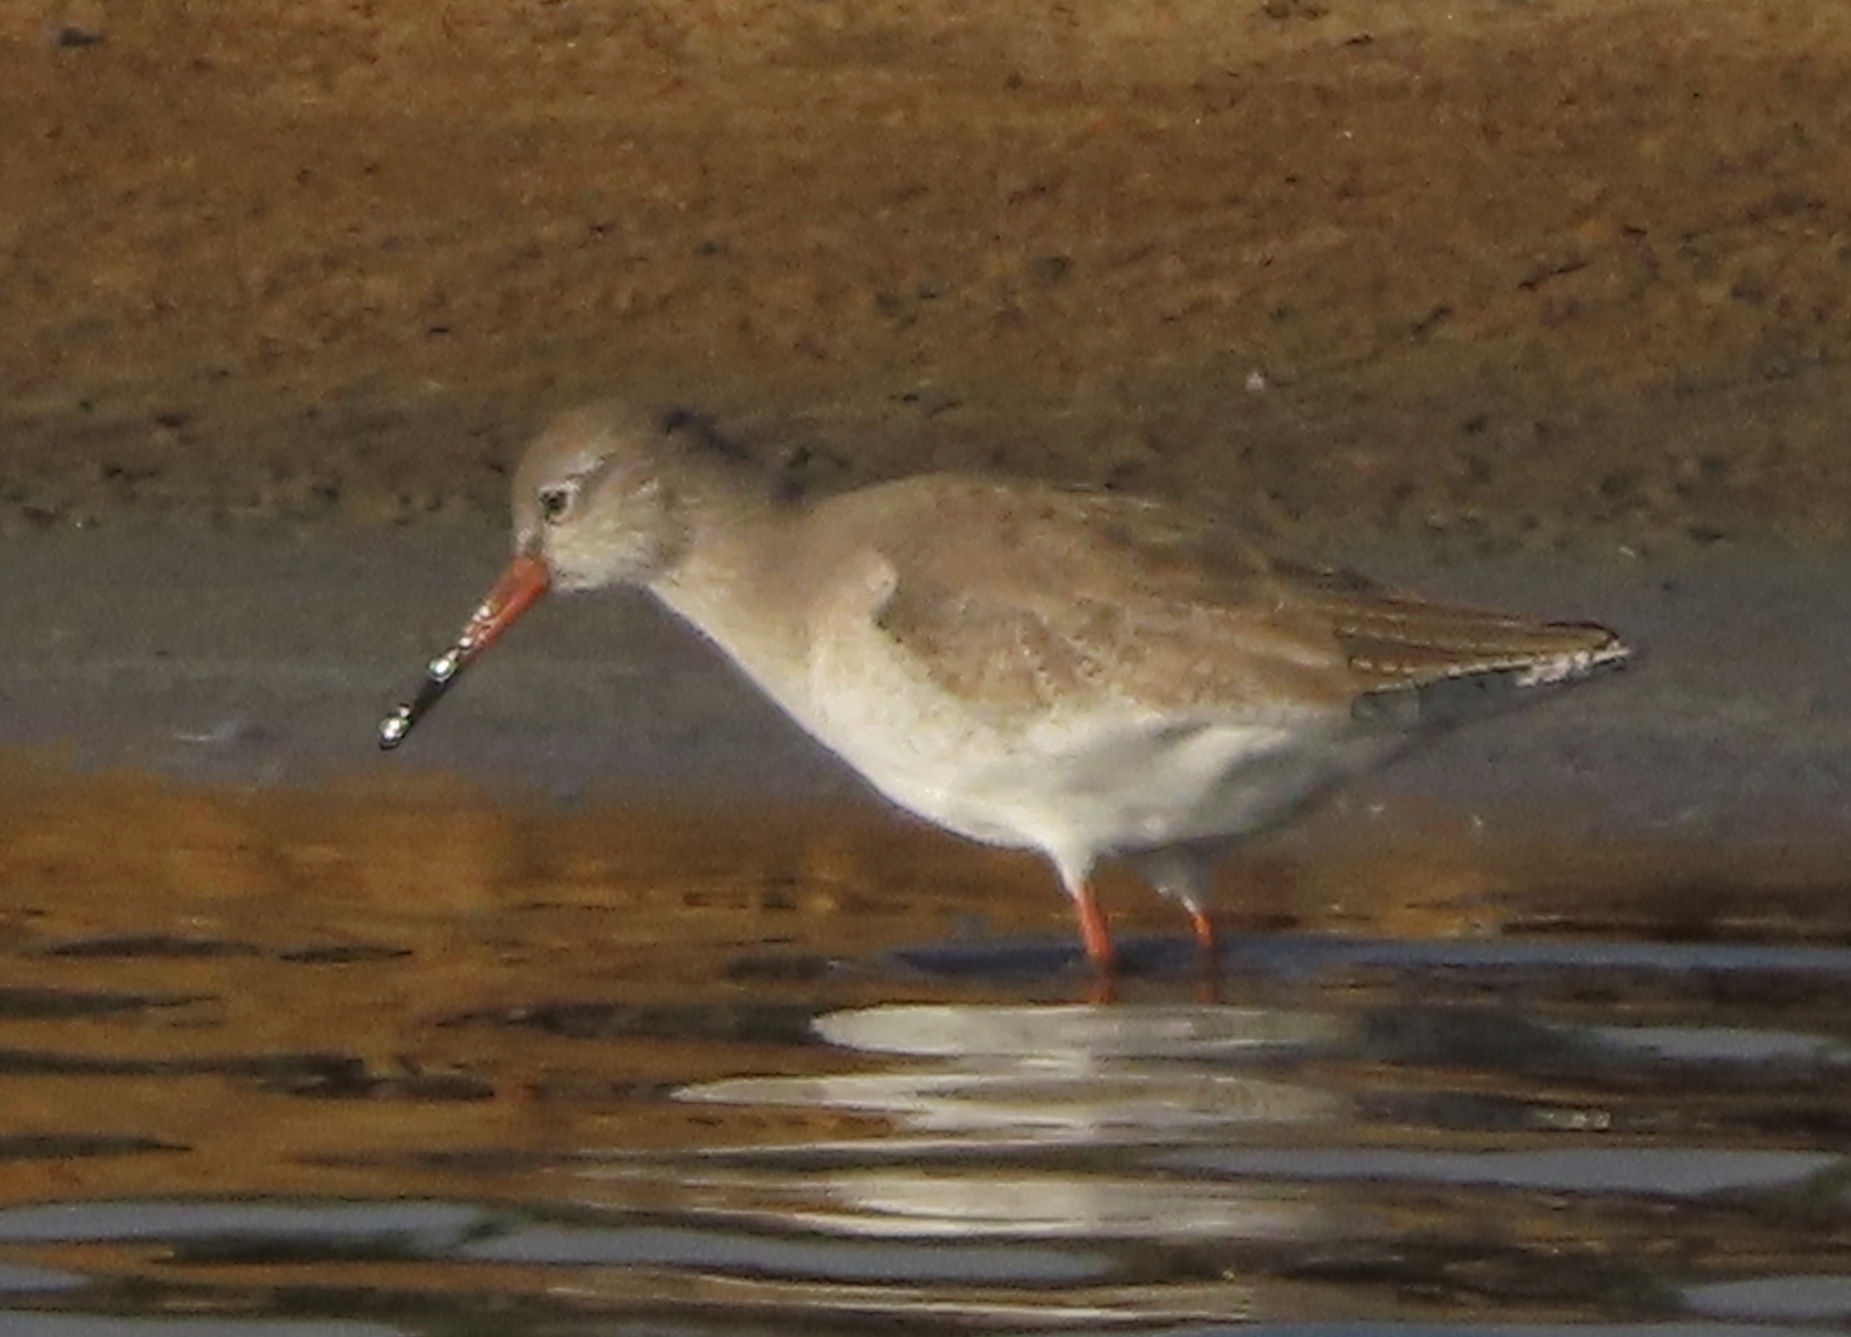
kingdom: Animalia
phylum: Chordata
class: Aves
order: Charadriiformes
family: Scolopacidae
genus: Tringa
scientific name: Tringa totanus
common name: Common redshank
